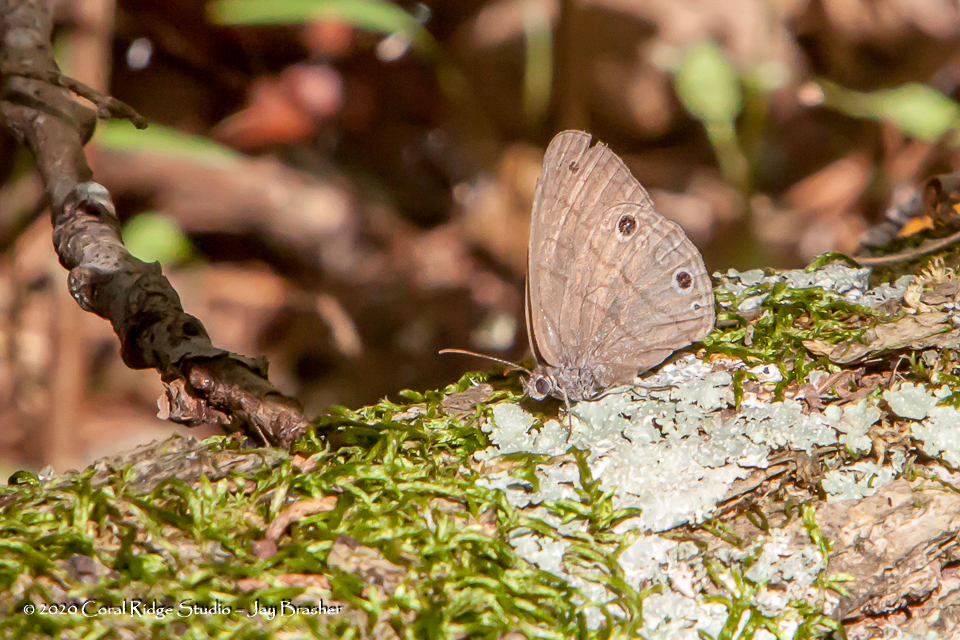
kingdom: Animalia
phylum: Arthropoda
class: Insecta
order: Lepidoptera
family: Nymphalidae
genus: Hermeuptychia
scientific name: Hermeuptychia hermes
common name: Hermes satyr
